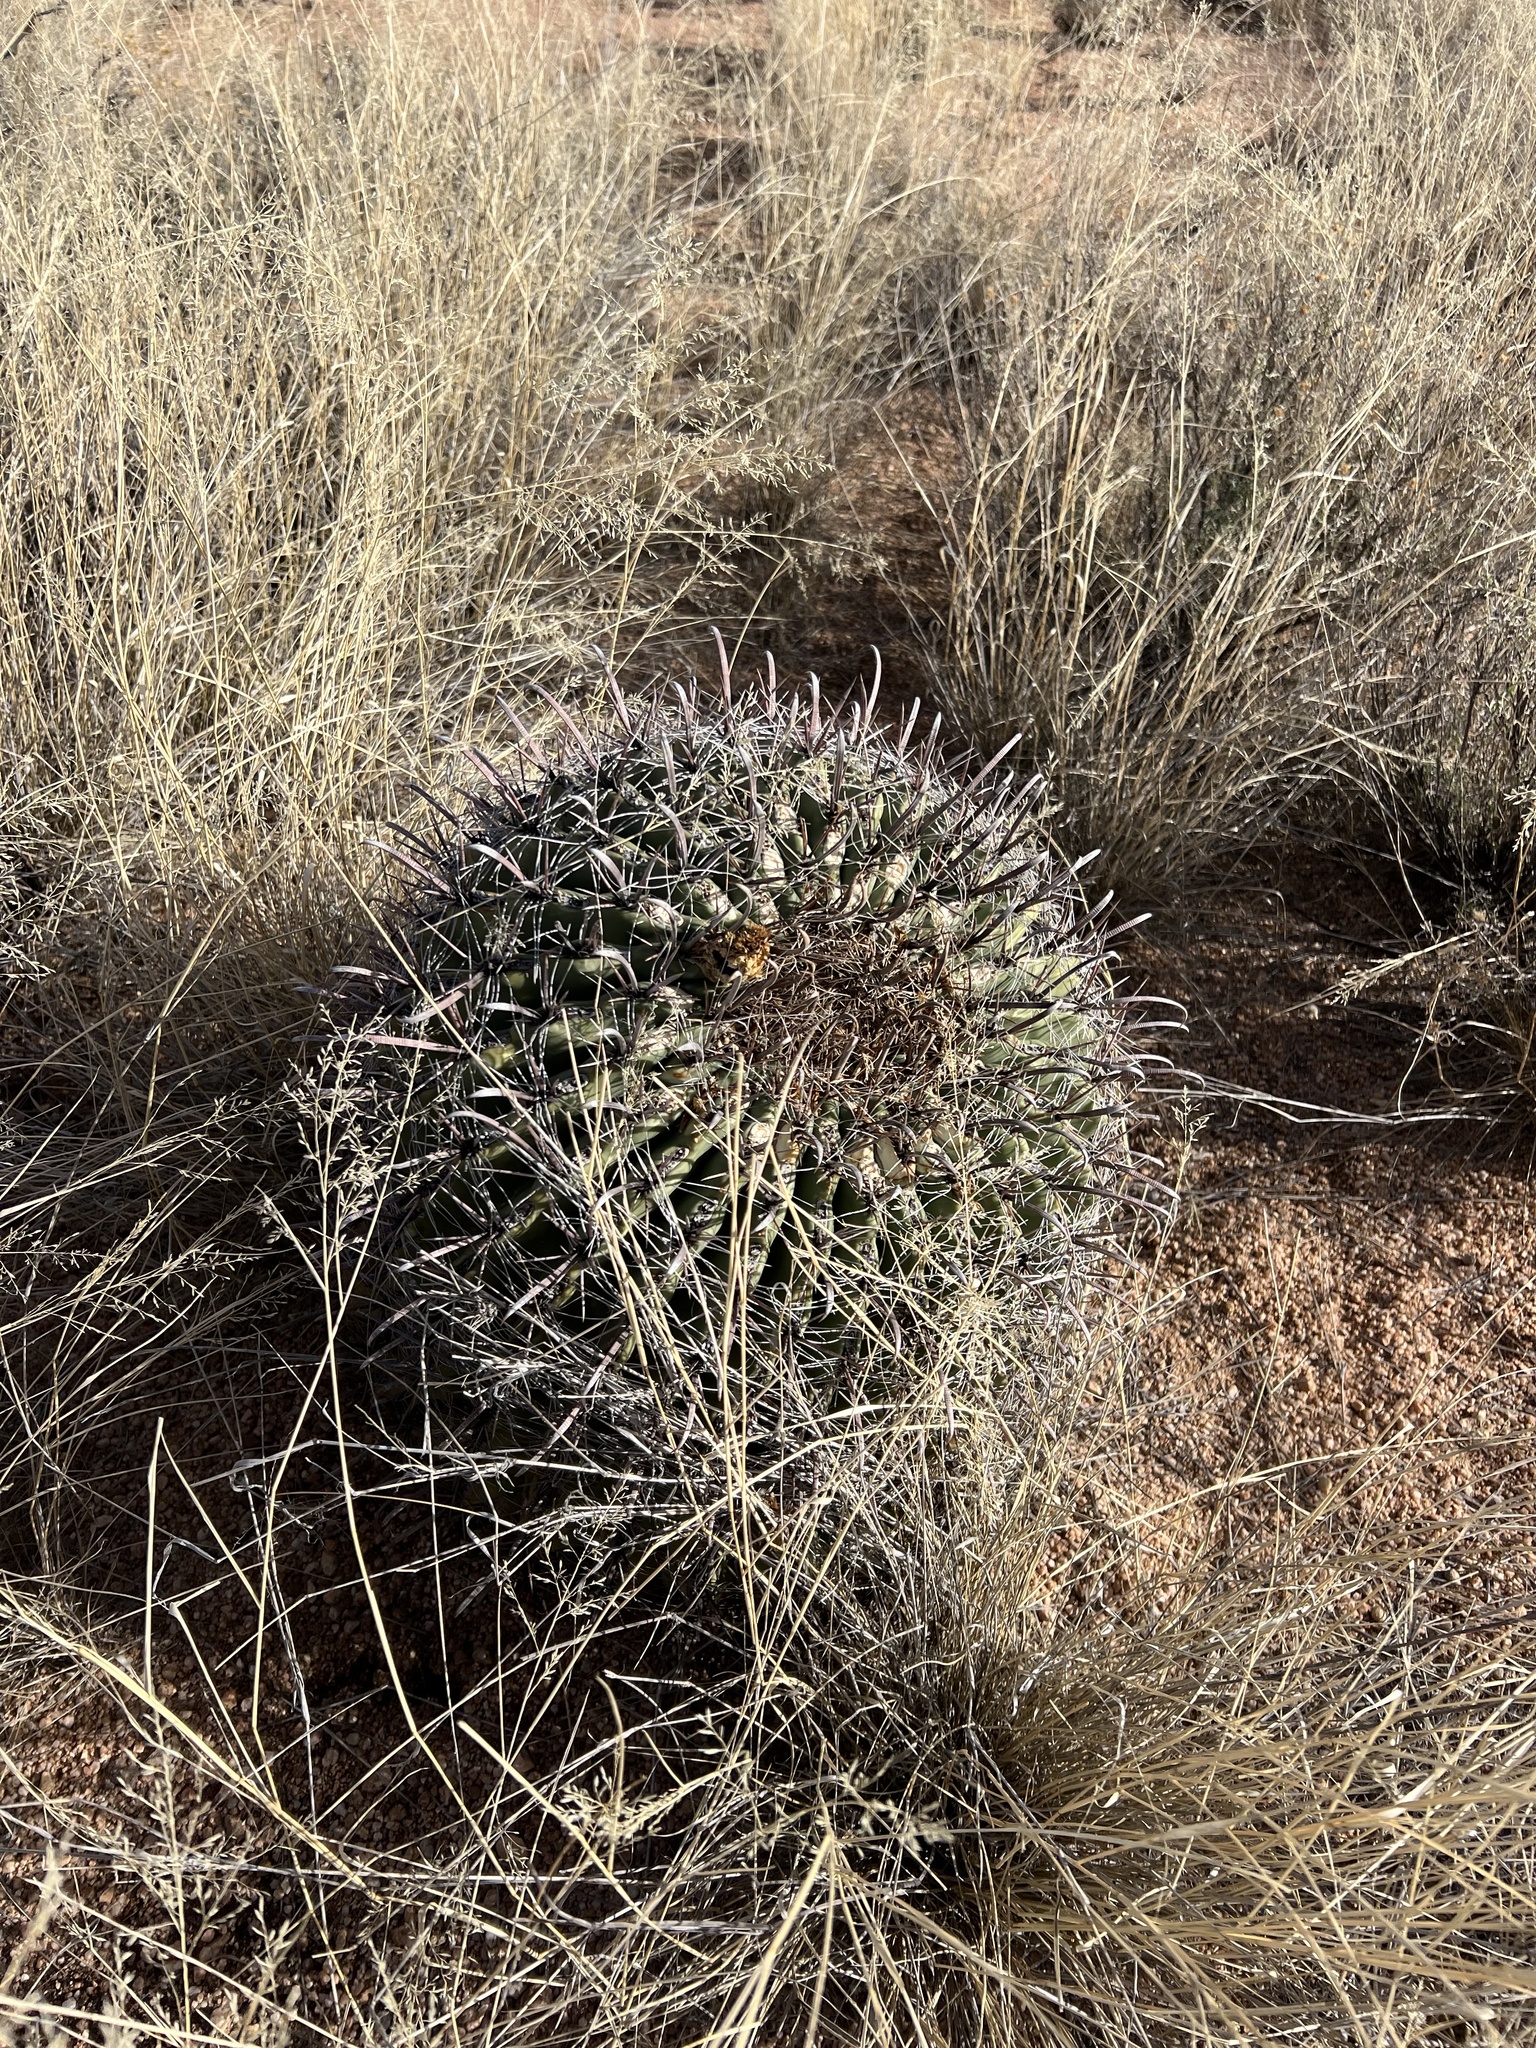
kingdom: Plantae
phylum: Tracheophyta
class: Magnoliopsida
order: Caryophyllales
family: Cactaceae
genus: Ferocactus
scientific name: Ferocactus wislizeni
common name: Candy barrel cactus
